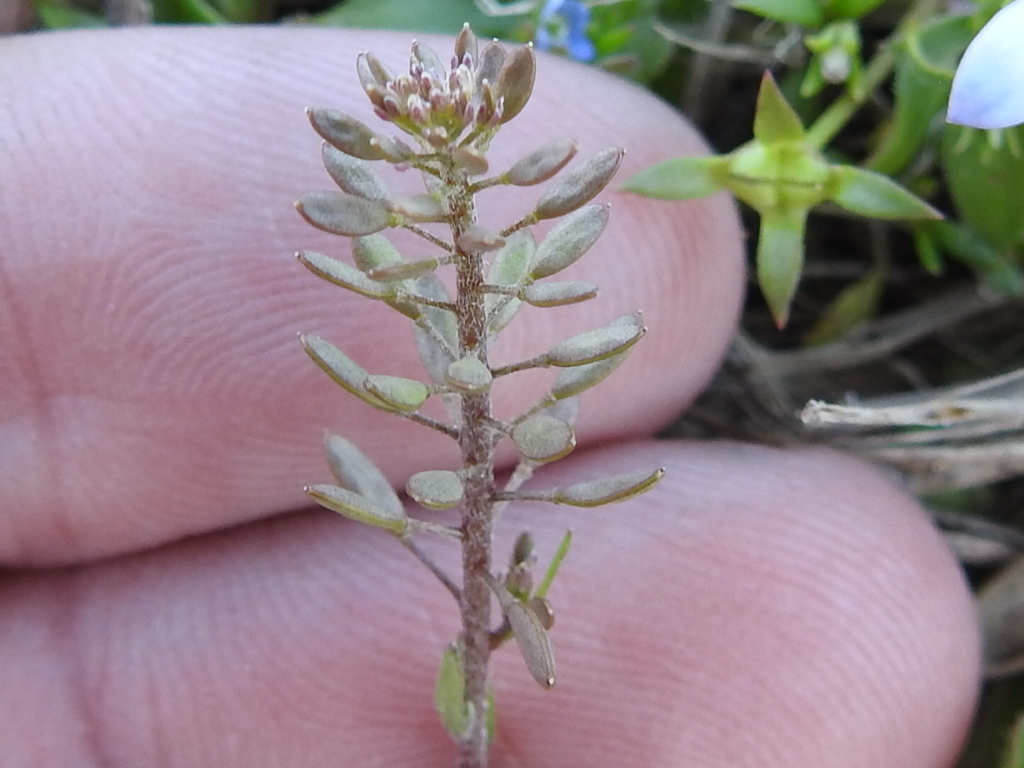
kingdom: Plantae
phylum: Tracheophyta
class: Magnoliopsida
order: Brassicales
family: Brassicaceae
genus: Abdra
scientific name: Abdra brachycarpa
